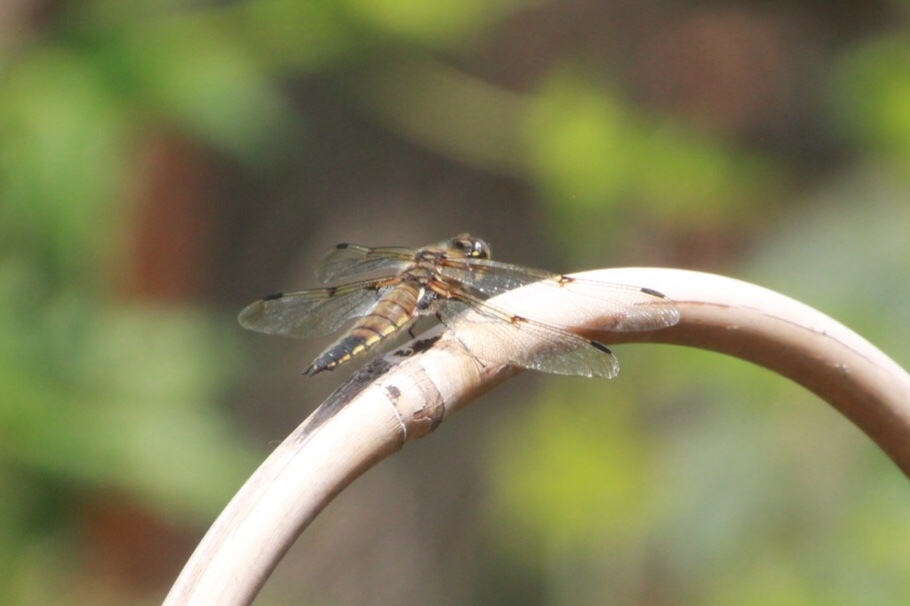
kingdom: Animalia
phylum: Arthropoda
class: Insecta
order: Odonata
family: Libellulidae
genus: Libellula
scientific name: Libellula quadrimaculata
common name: Four-spotted chaser
